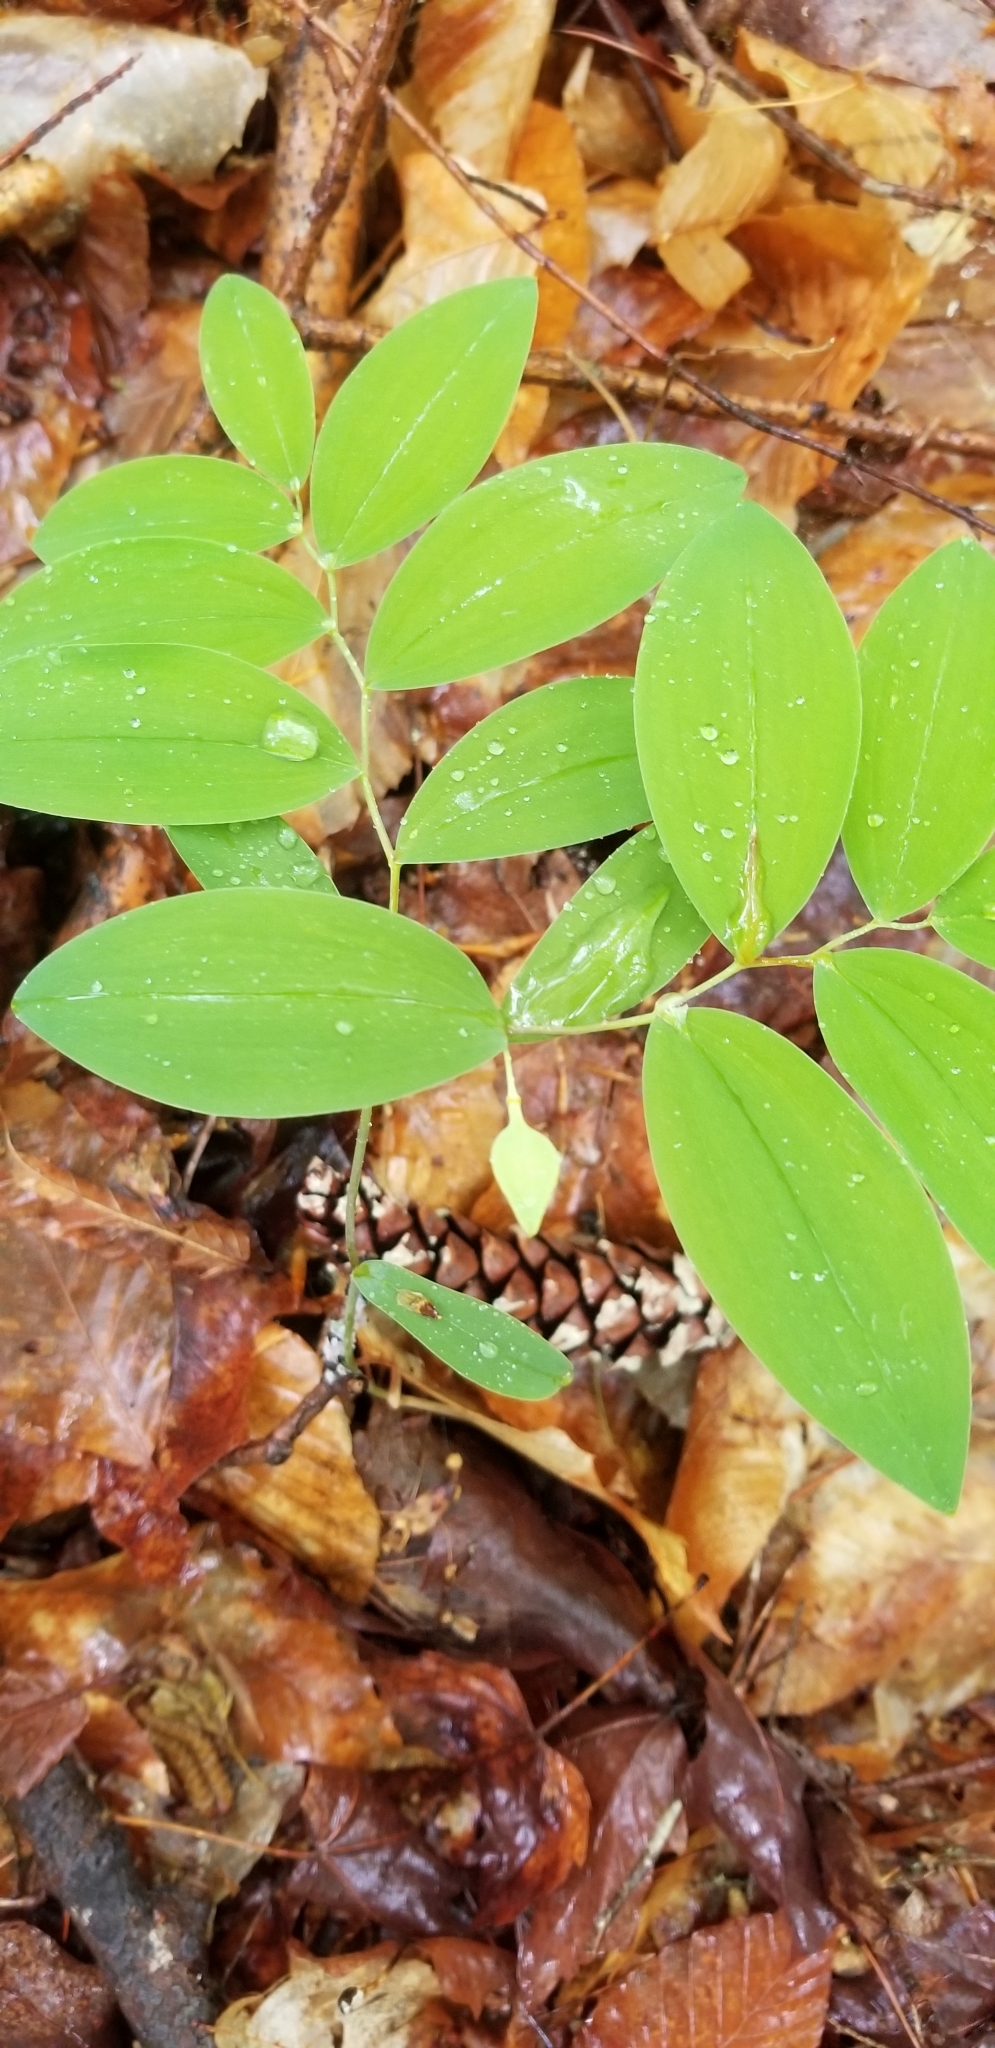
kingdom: Plantae
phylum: Tracheophyta
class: Liliopsida
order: Liliales
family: Colchicaceae
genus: Uvularia
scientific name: Uvularia sessilifolia
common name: Straw-lily
